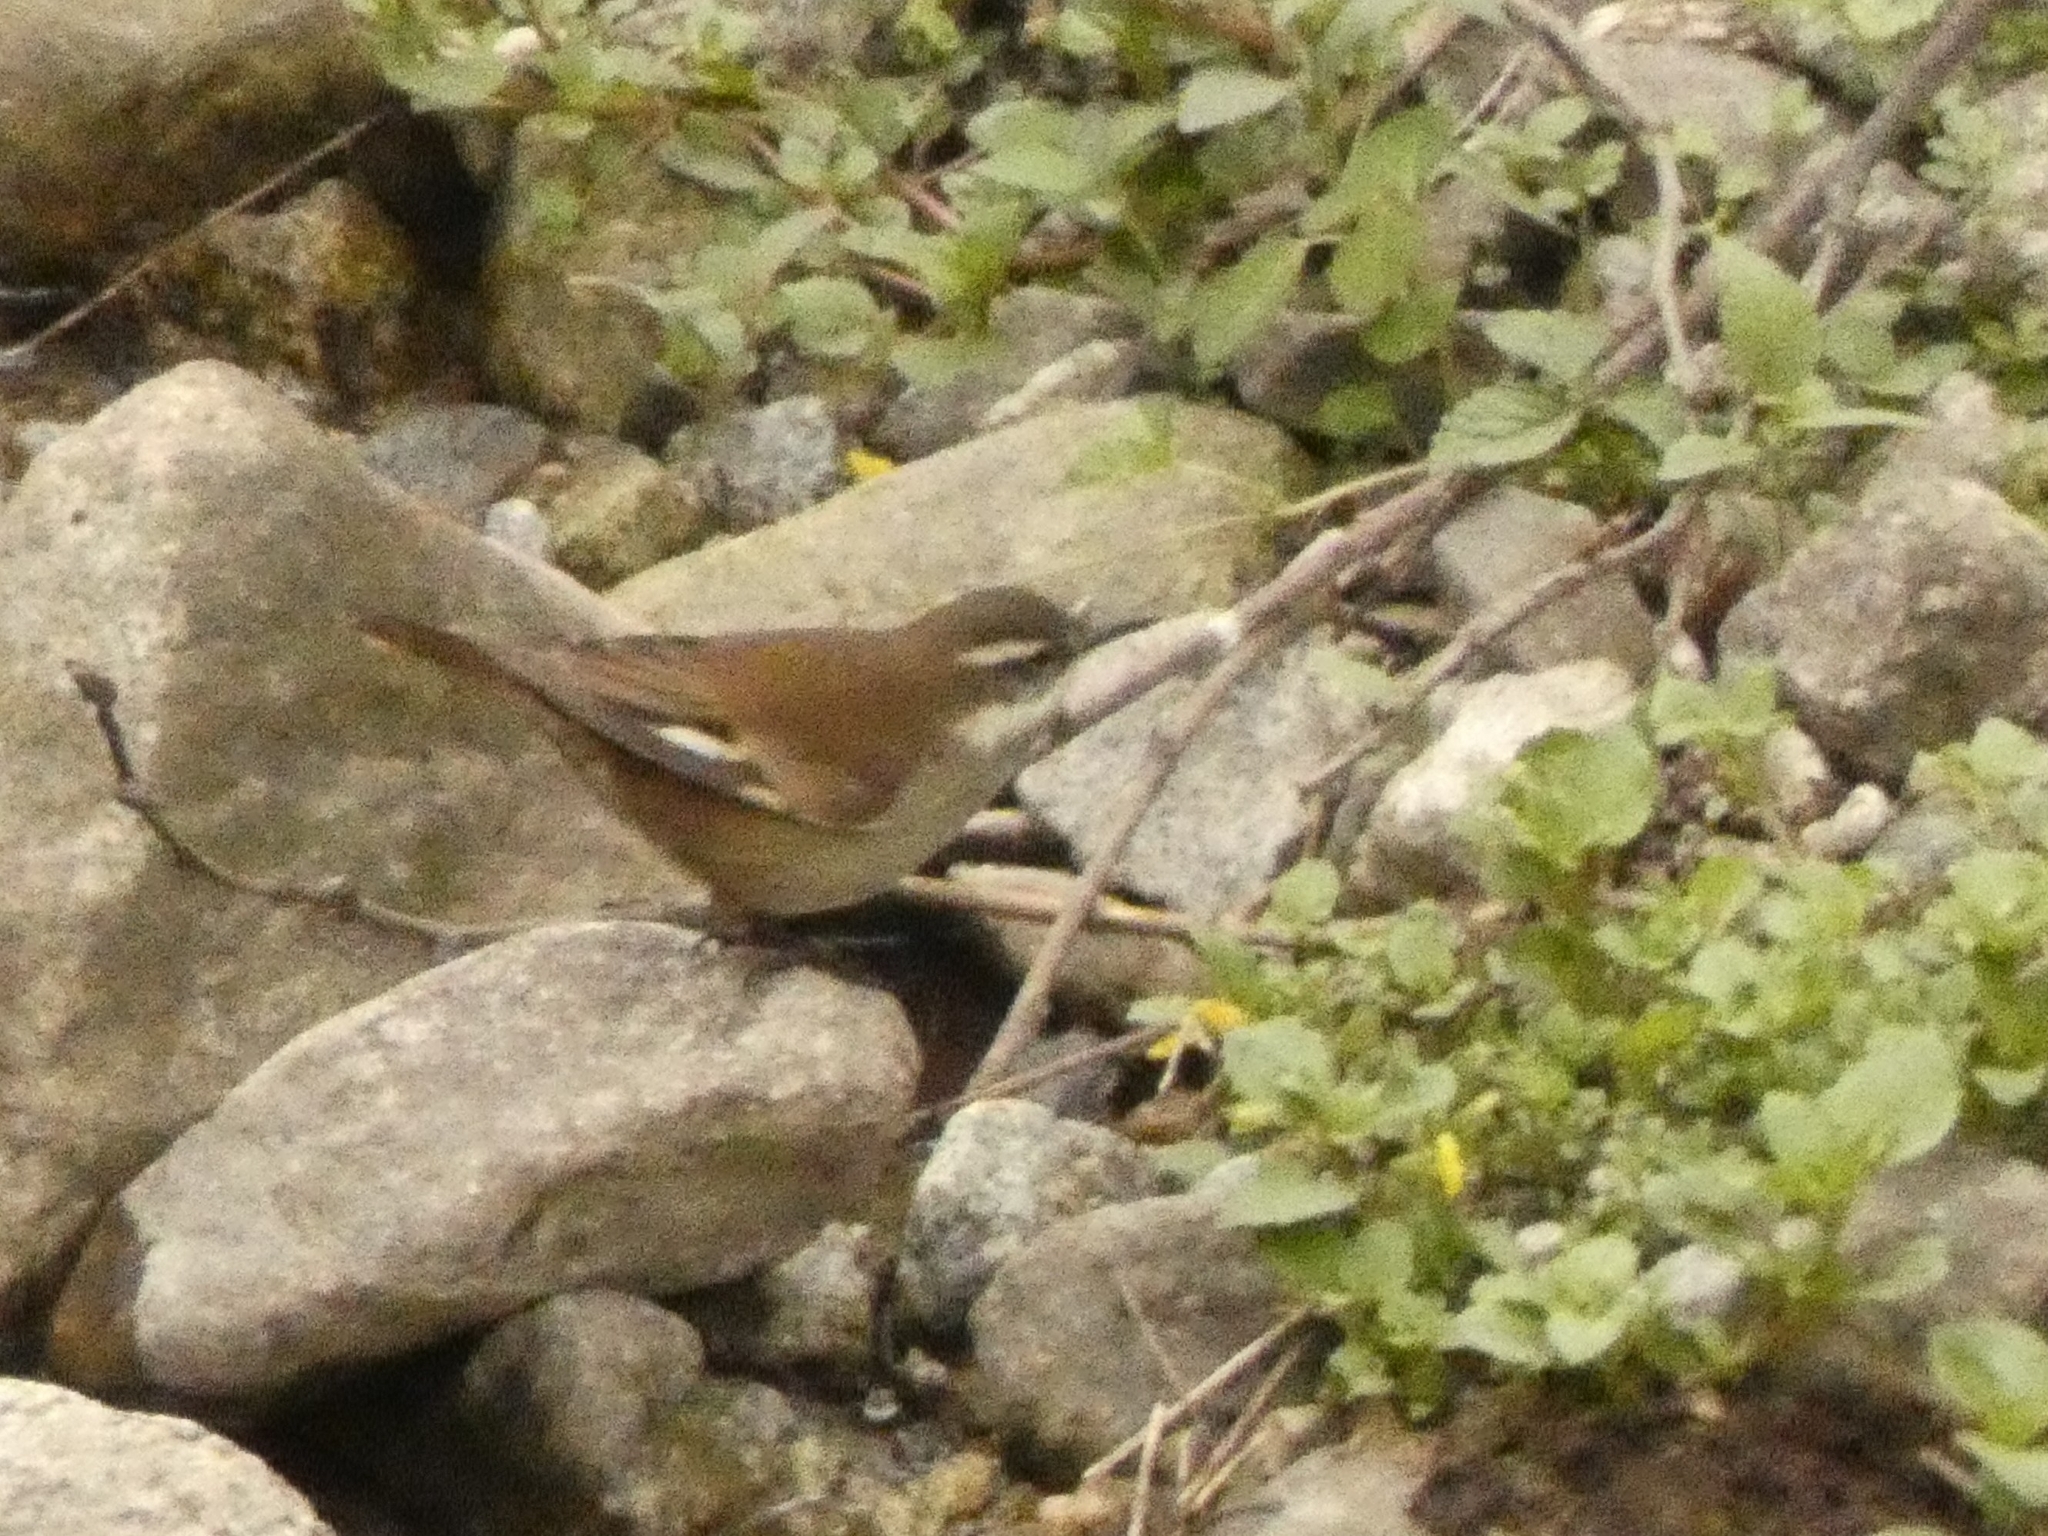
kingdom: Animalia
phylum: Chordata
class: Aves
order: Passeriformes
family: Furnariidae
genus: Cinclodes
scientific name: Cinclodes atacamensis
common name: White-winged cinclodes
